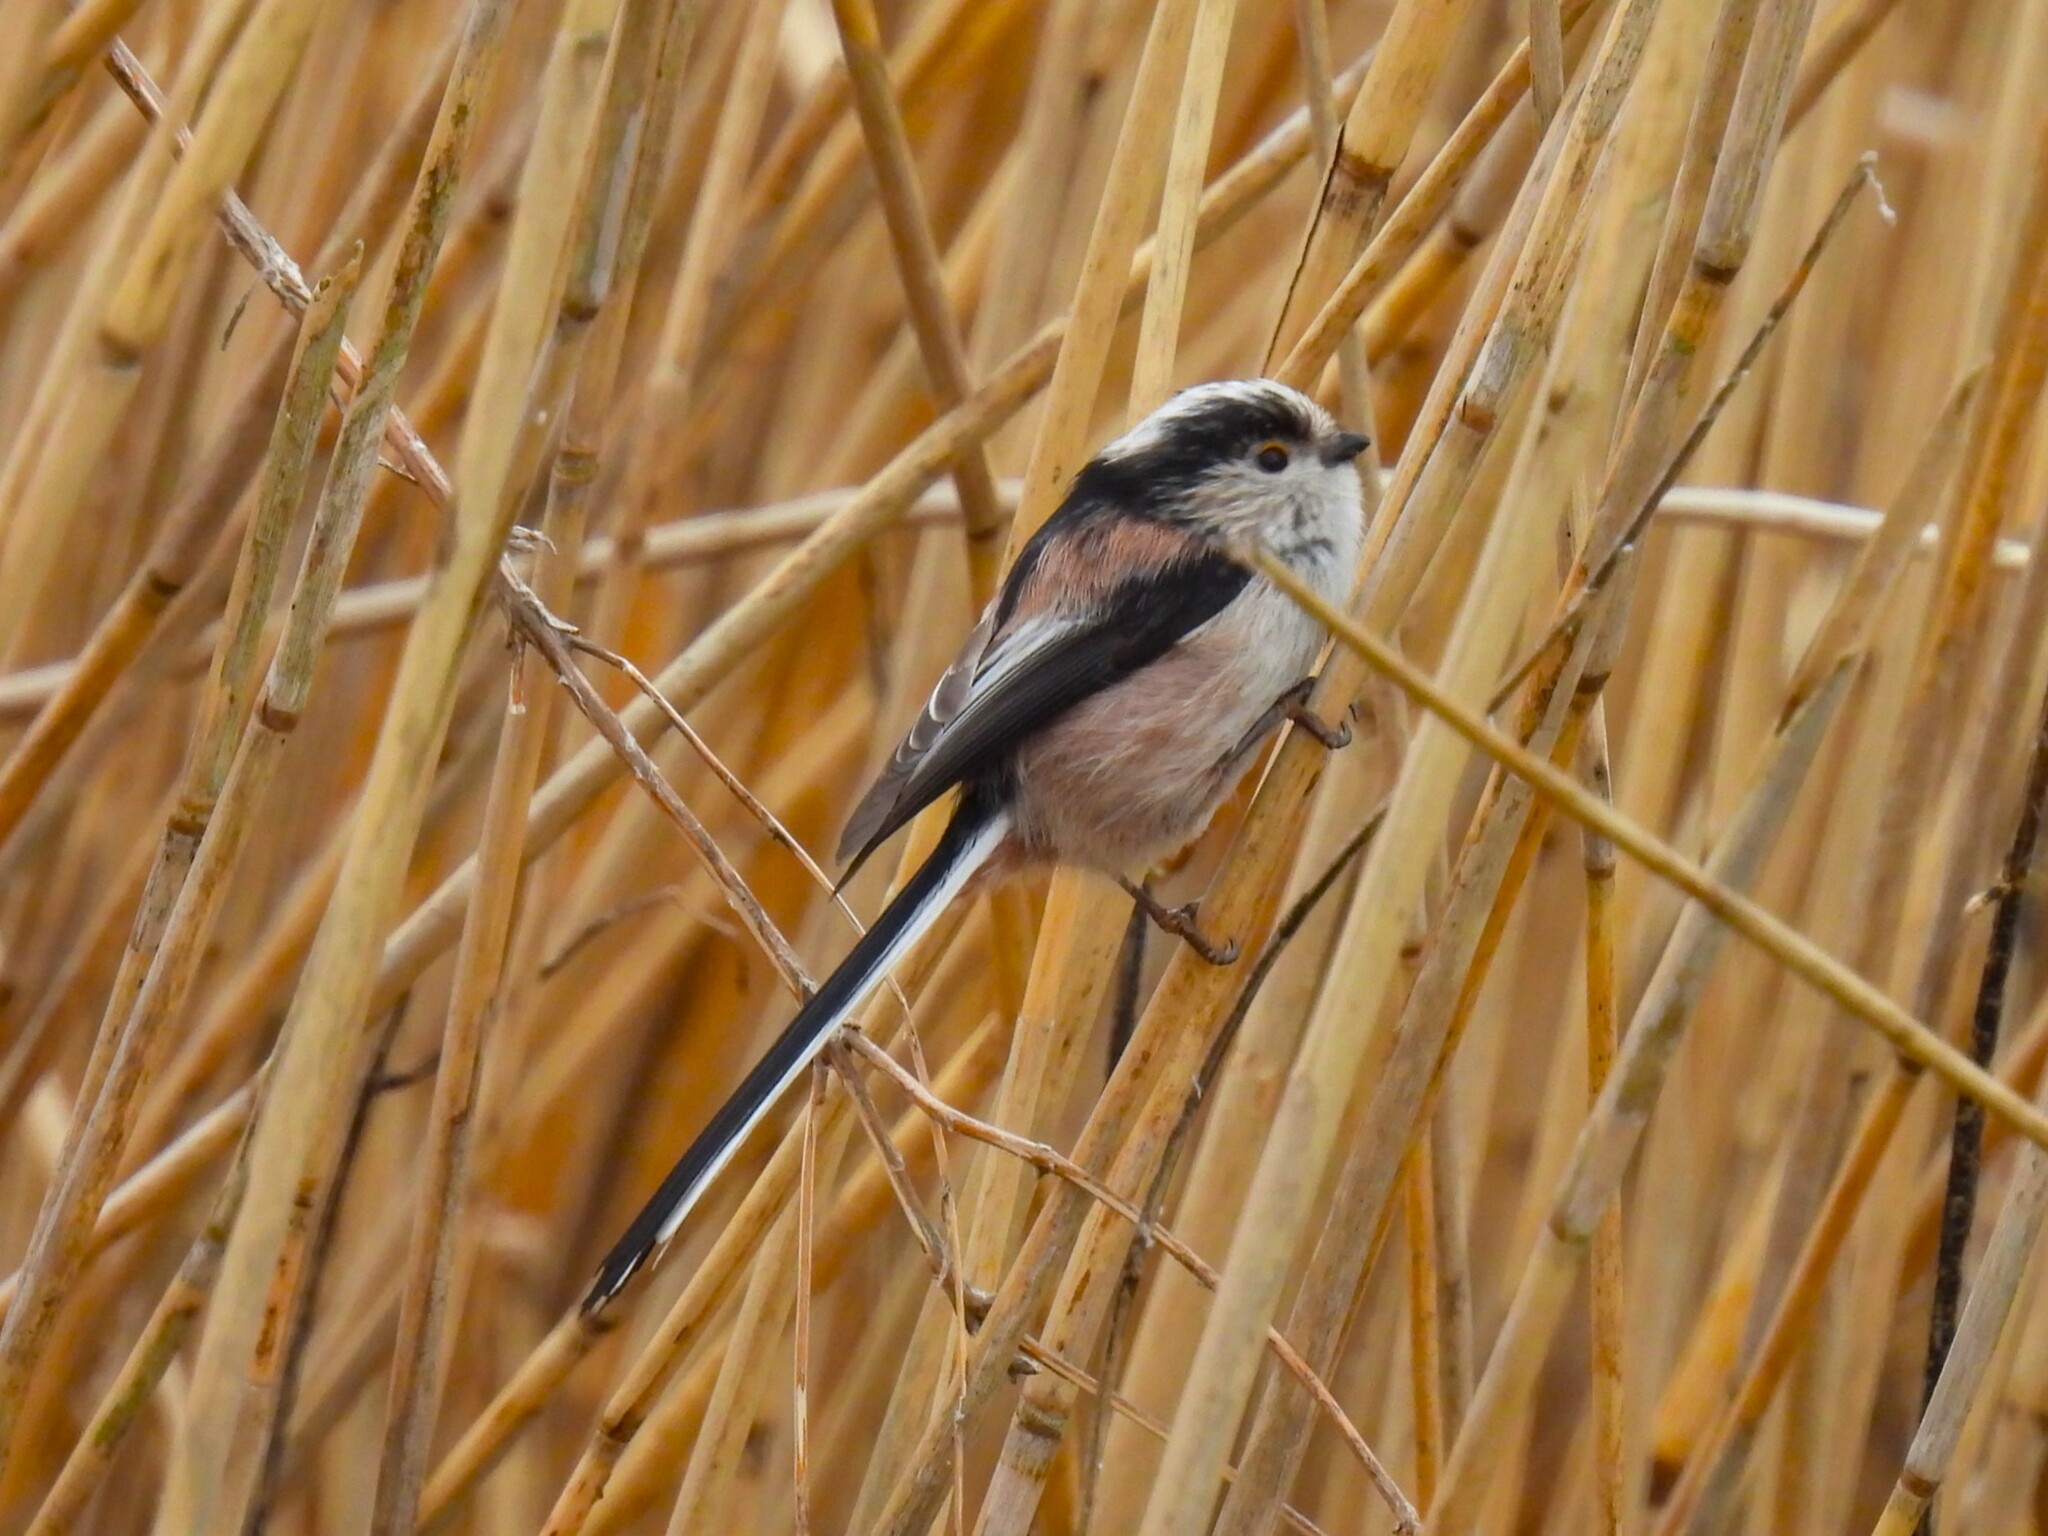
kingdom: Animalia
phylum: Chordata
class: Aves
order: Passeriformes
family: Aegithalidae
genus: Aegithalos
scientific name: Aegithalos caudatus
